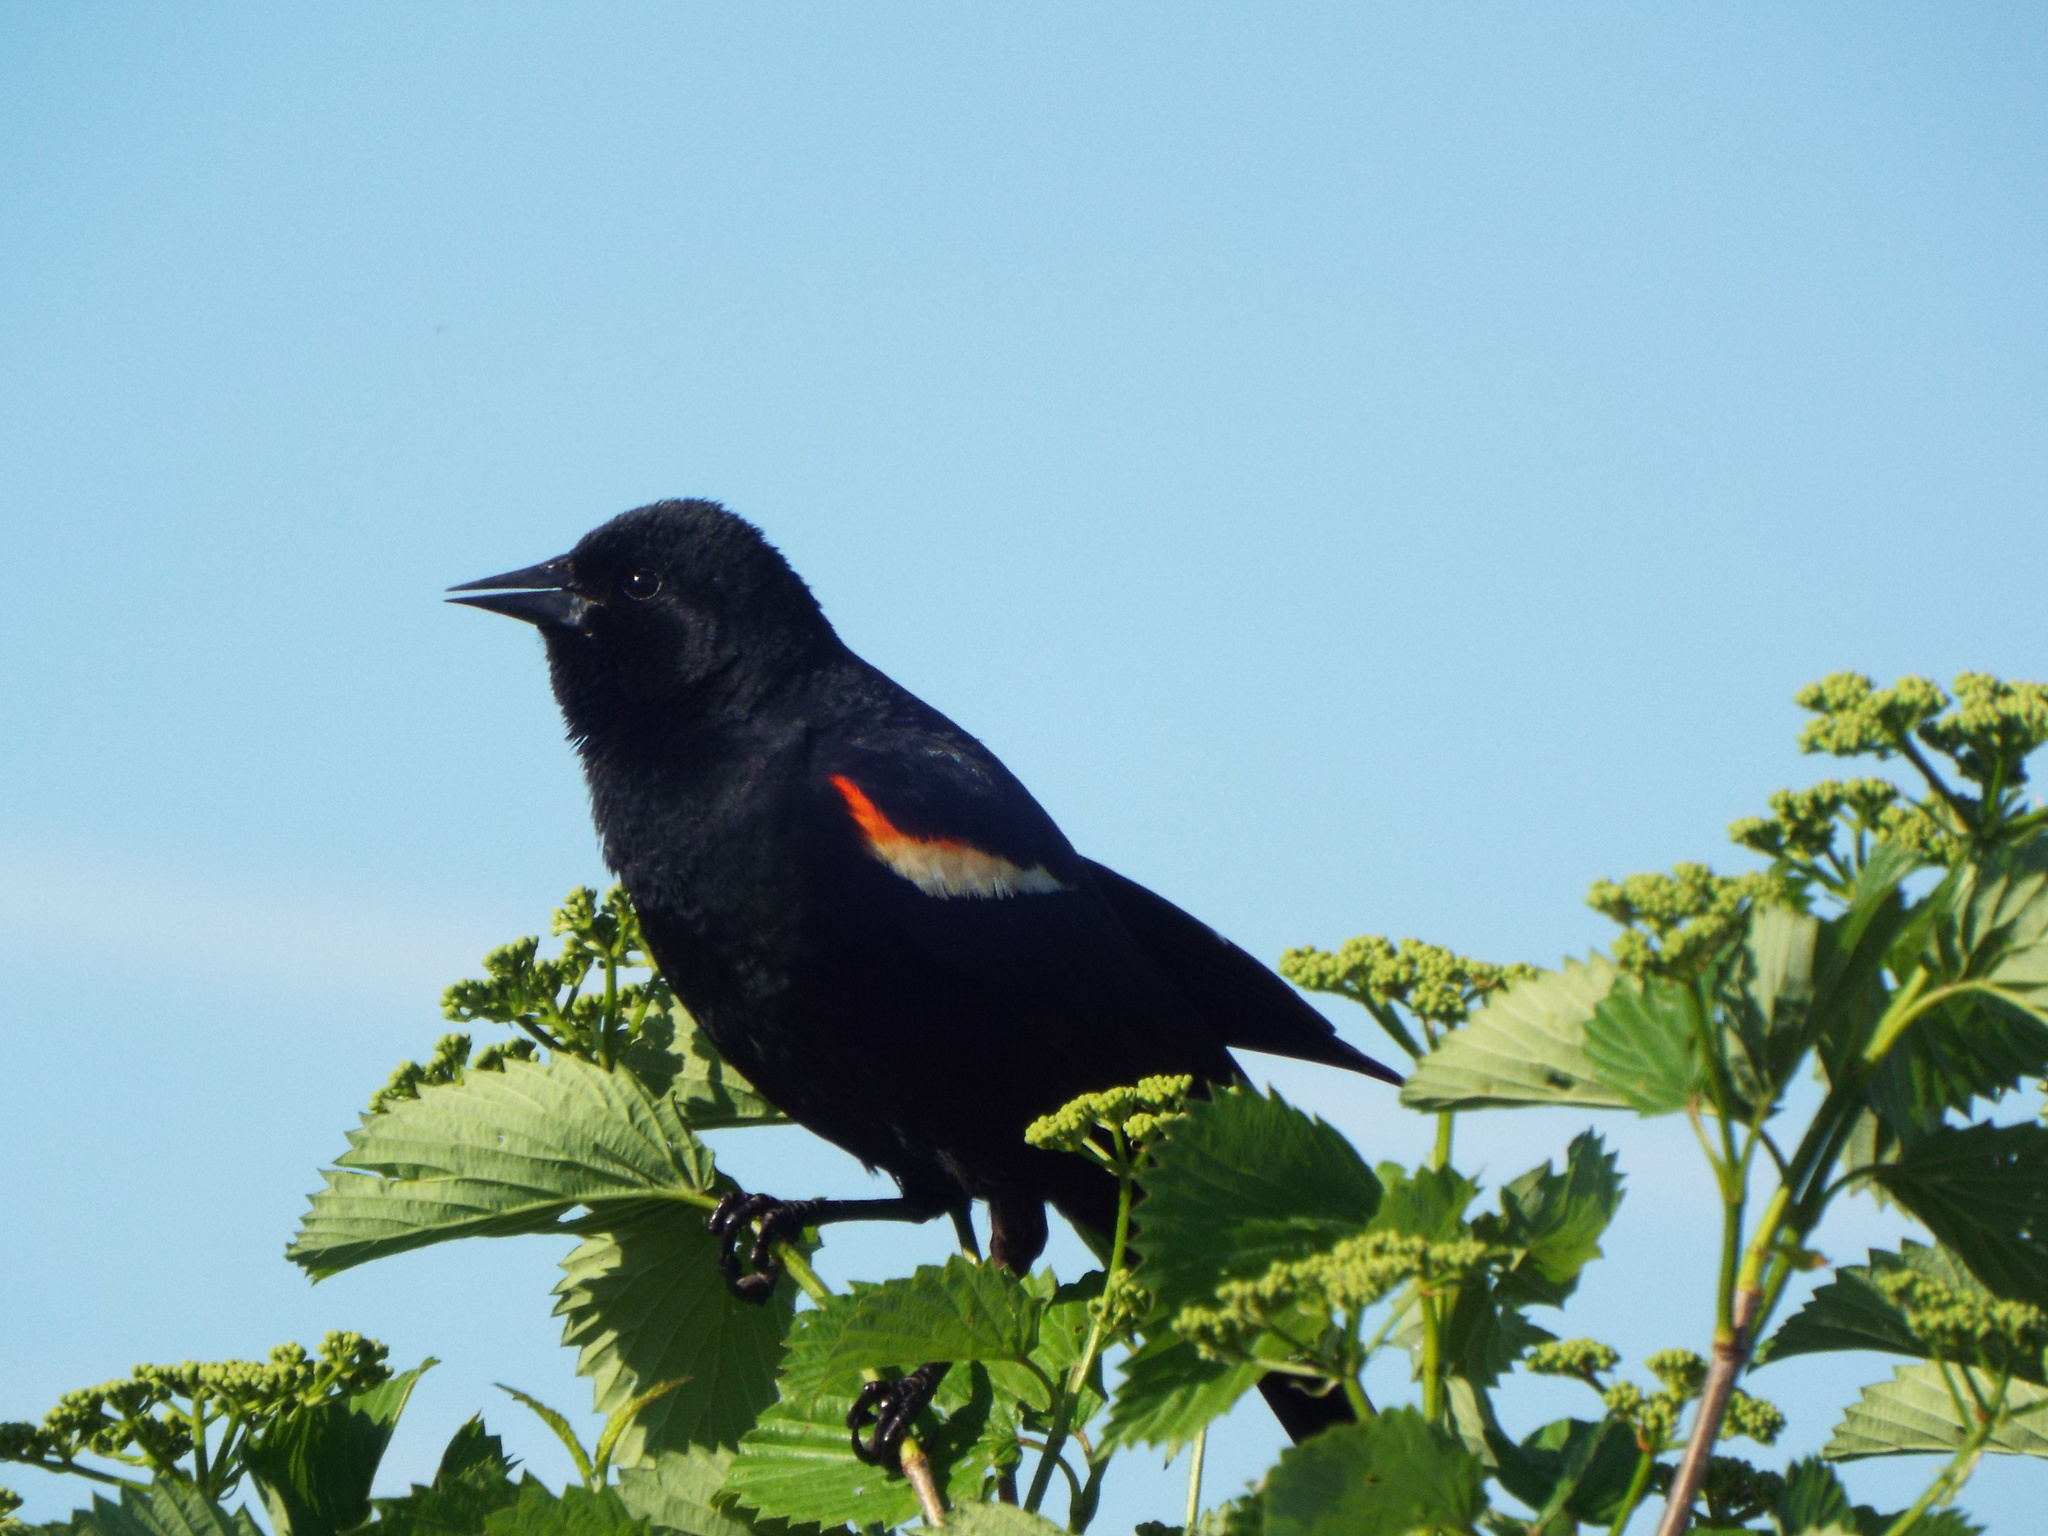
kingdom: Animalia
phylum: Chordata
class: Aves
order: Passeriformes
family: Icteridae
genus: Agelaius
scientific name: Agelaius phoeniceus
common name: Red-winged blackbird
